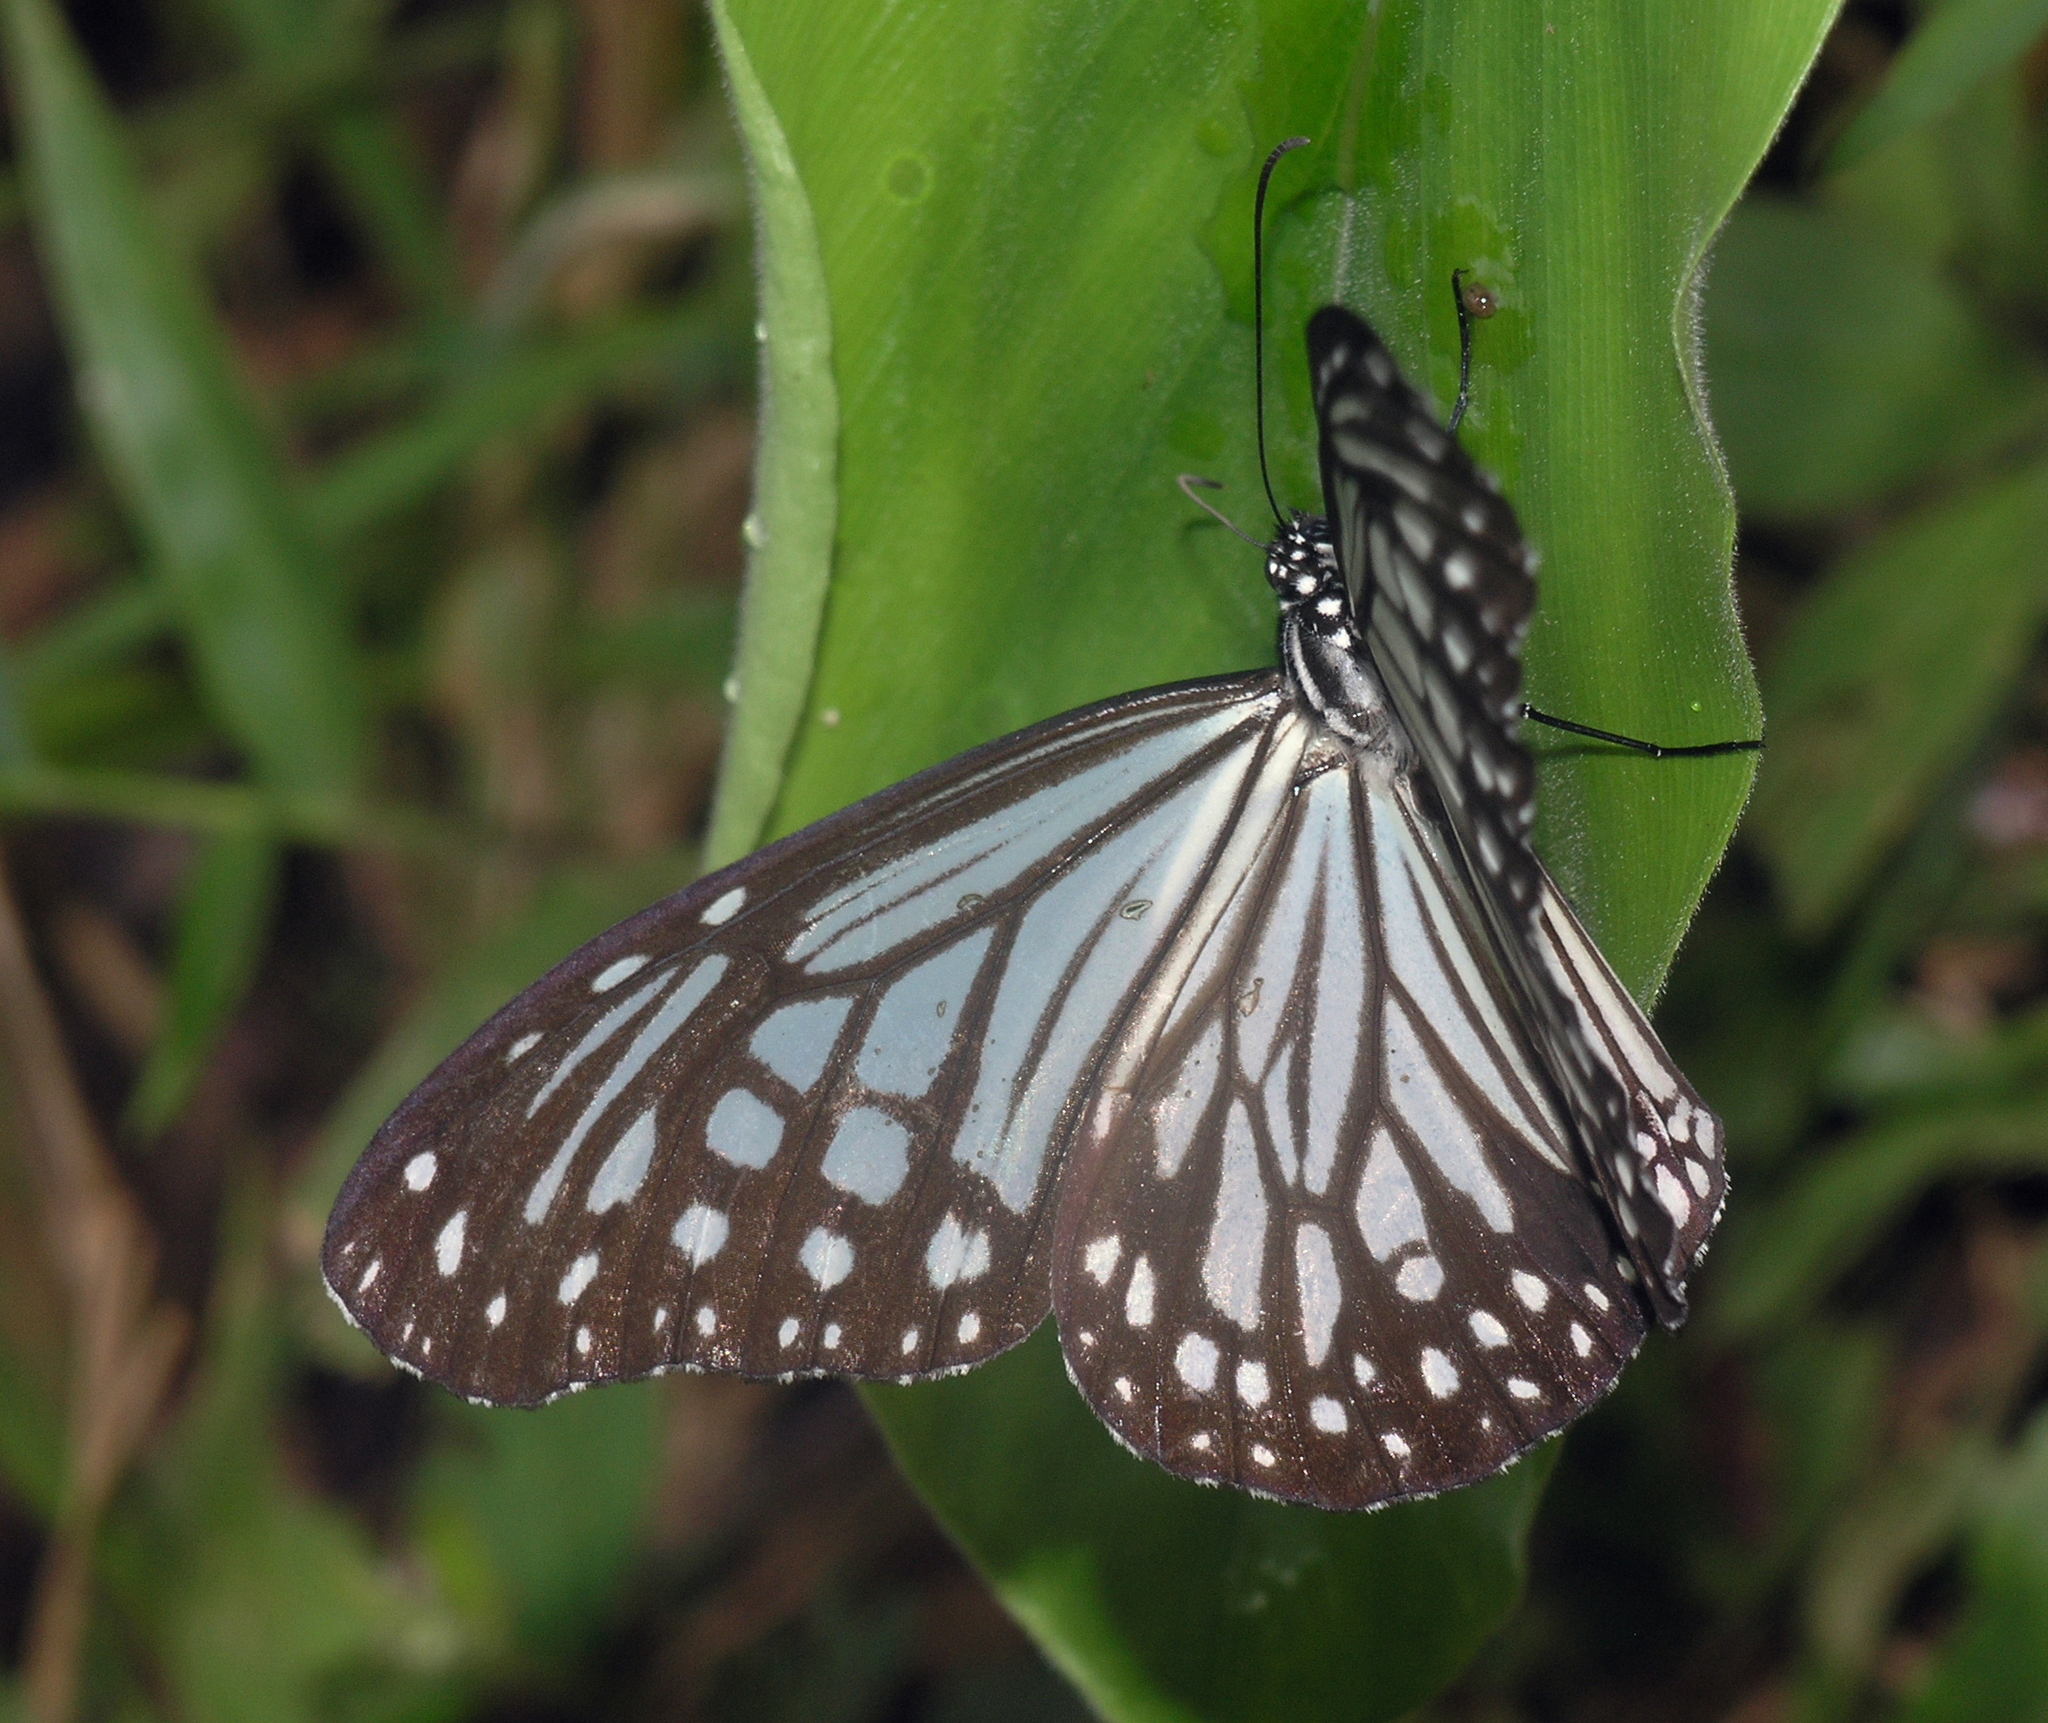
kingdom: Animalia
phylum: Arthropoda
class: Insecta
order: Lepidoptera
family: Nymphalidae
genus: Parantica
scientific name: Parantica aglea
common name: Glassy tiger
